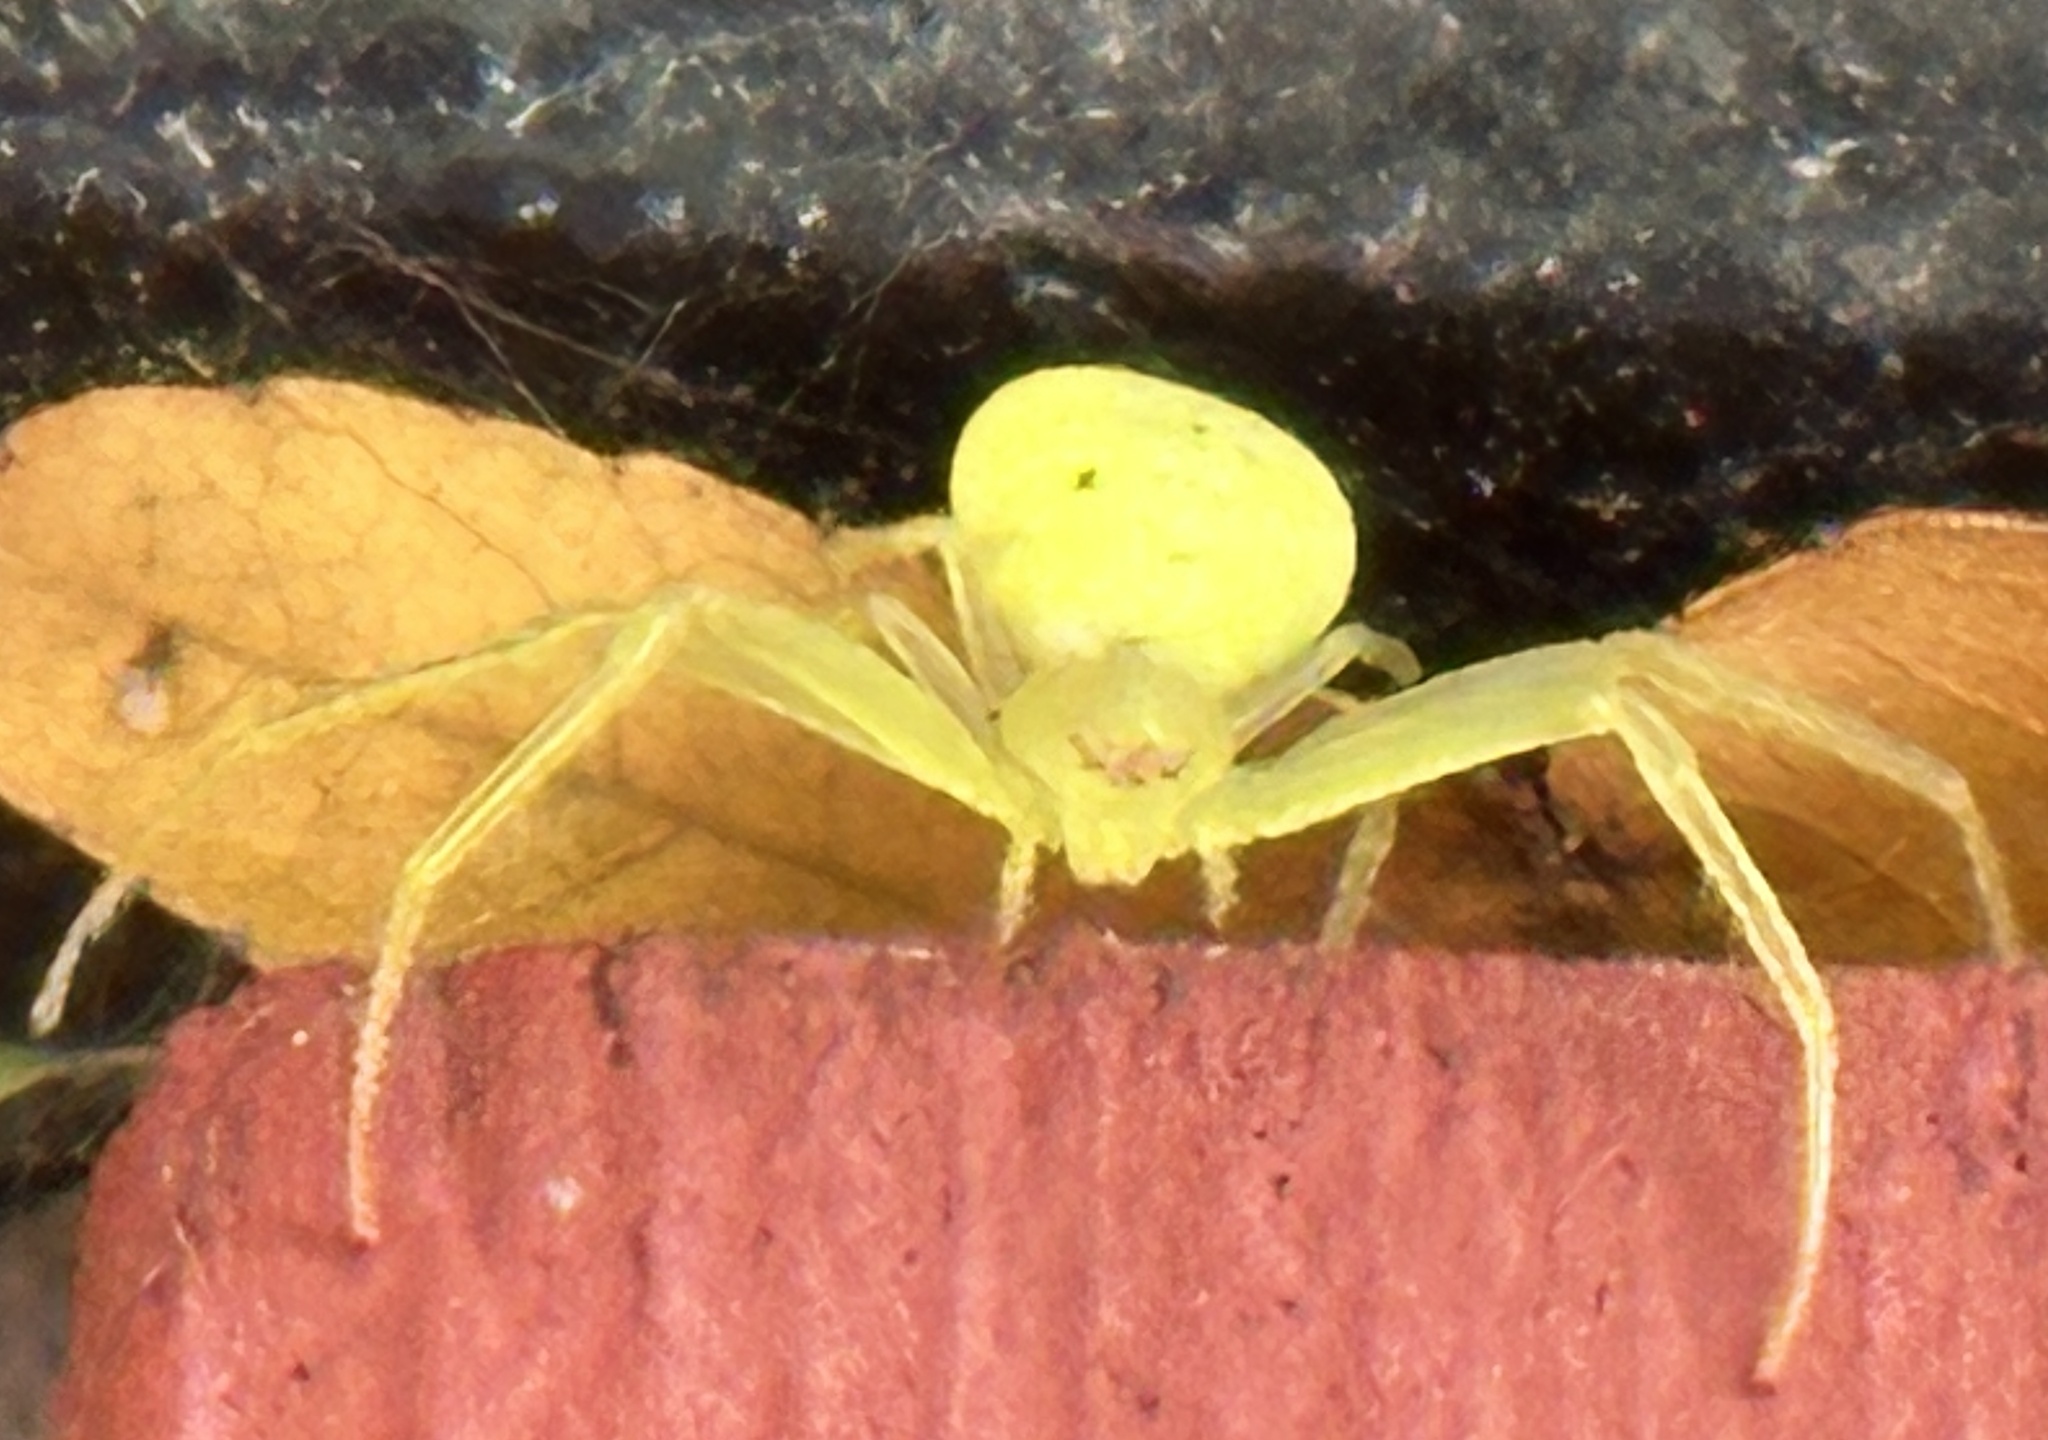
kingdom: Animalia
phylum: Arthropoda
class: Arachnida
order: Araneae
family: Thomisidae
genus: Misumessus
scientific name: Misumessus oblongus
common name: American green crab spider
